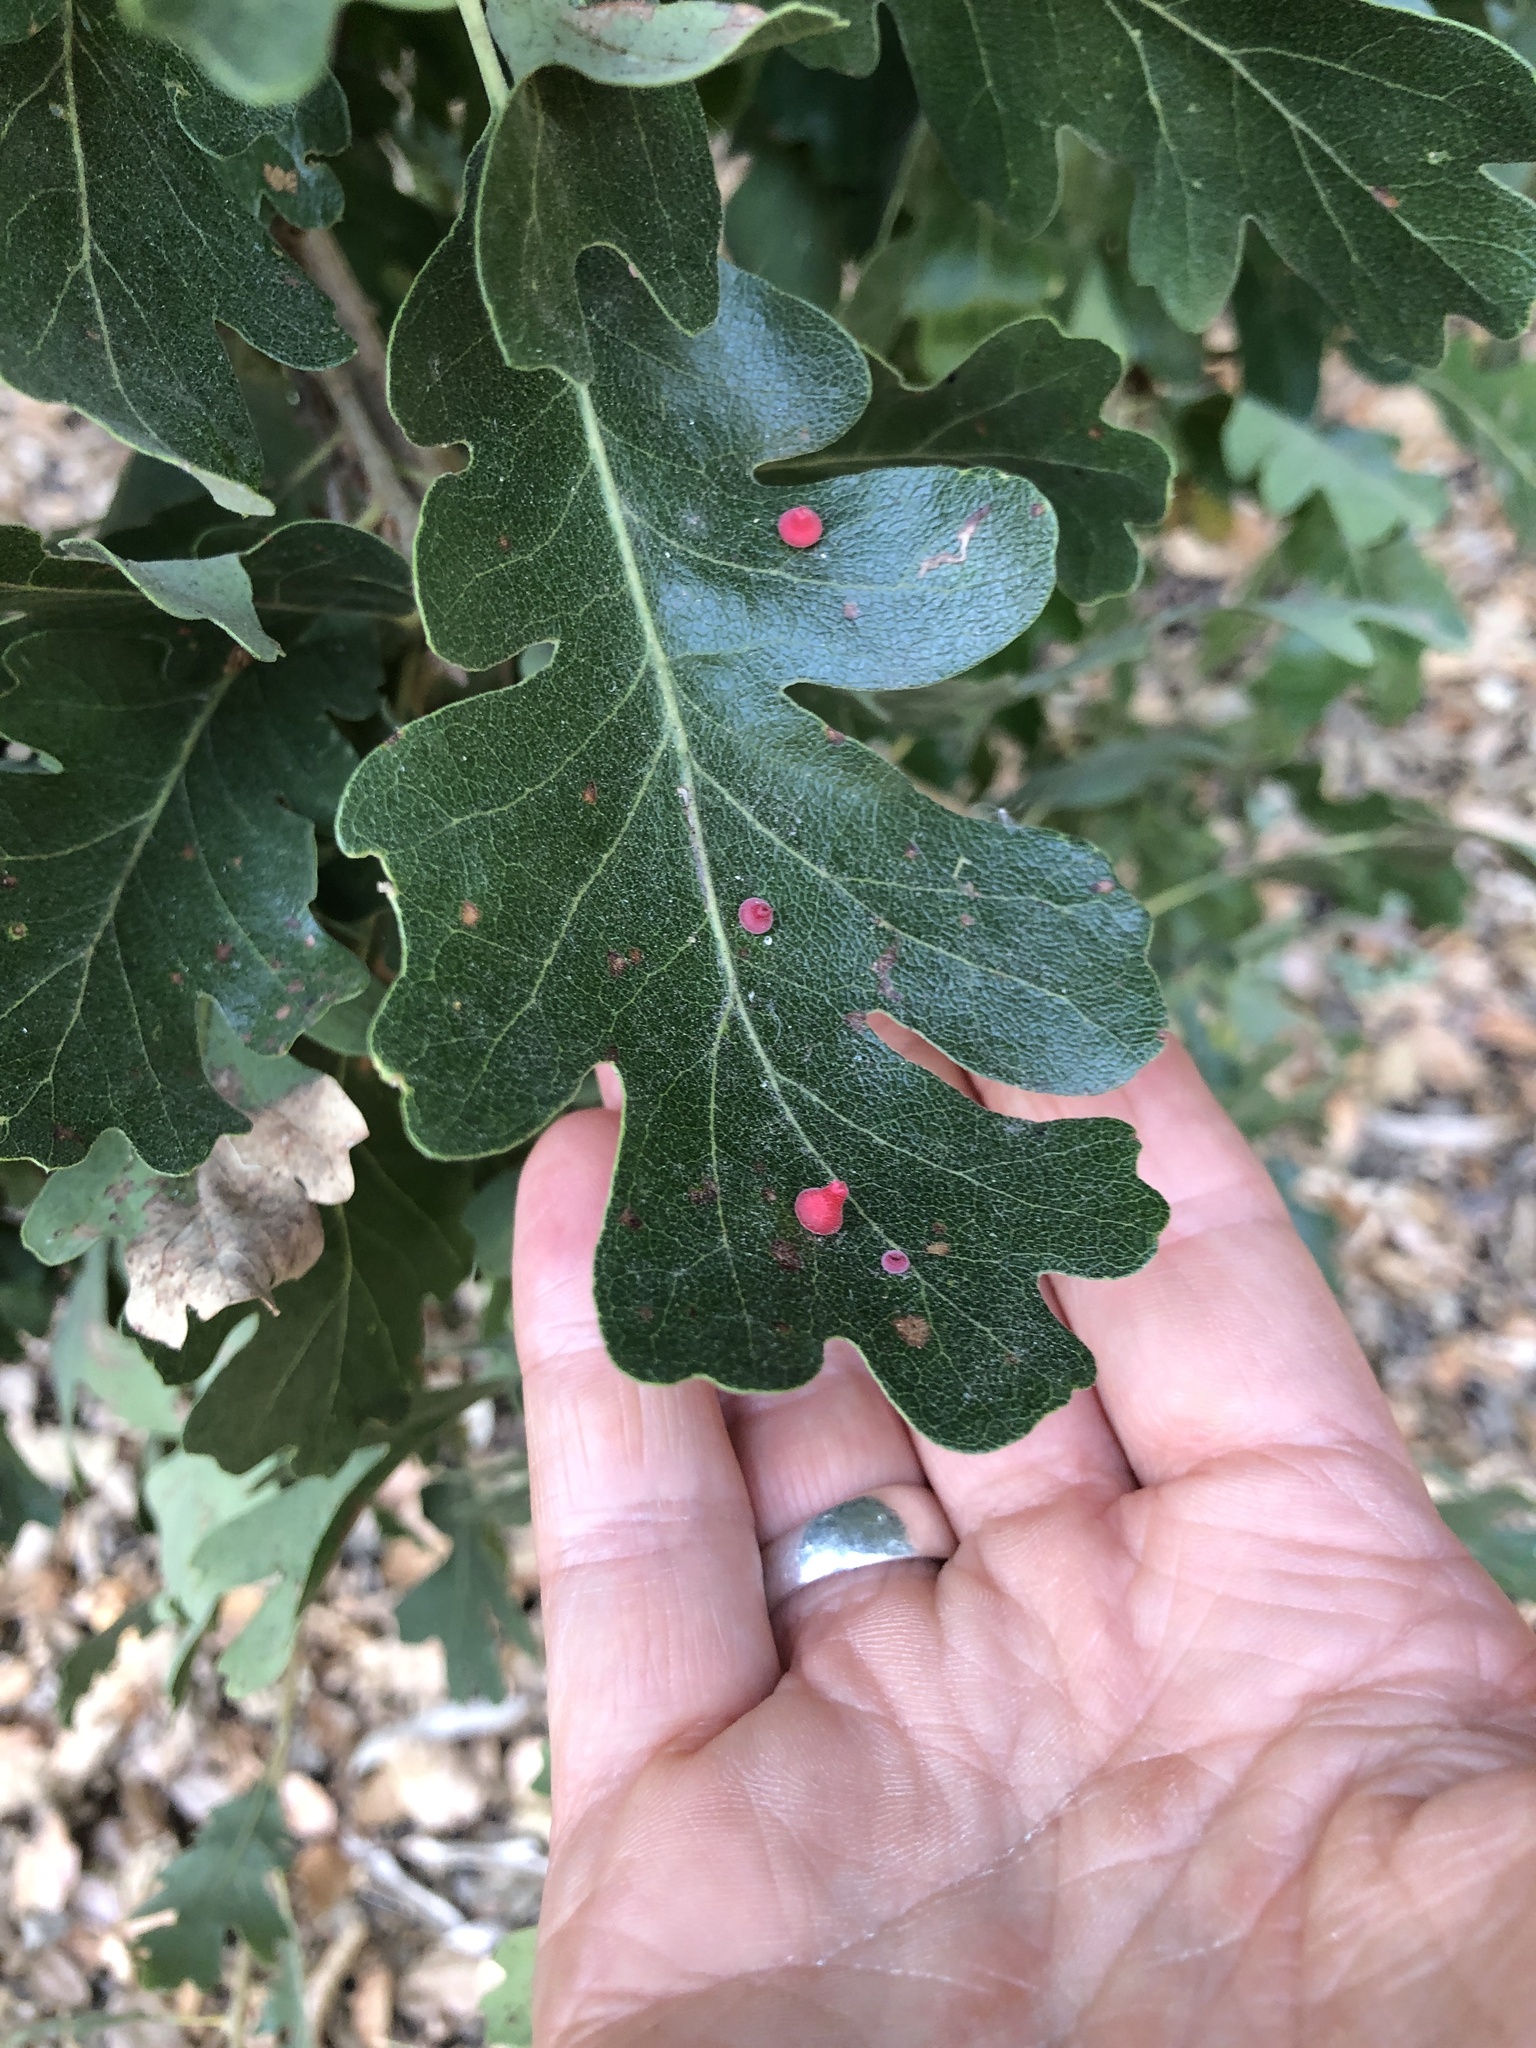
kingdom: Animalia
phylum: Arthropoda
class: Insecta
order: Hymenoptera
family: Cynipidae
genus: Andricus
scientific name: Andricus
